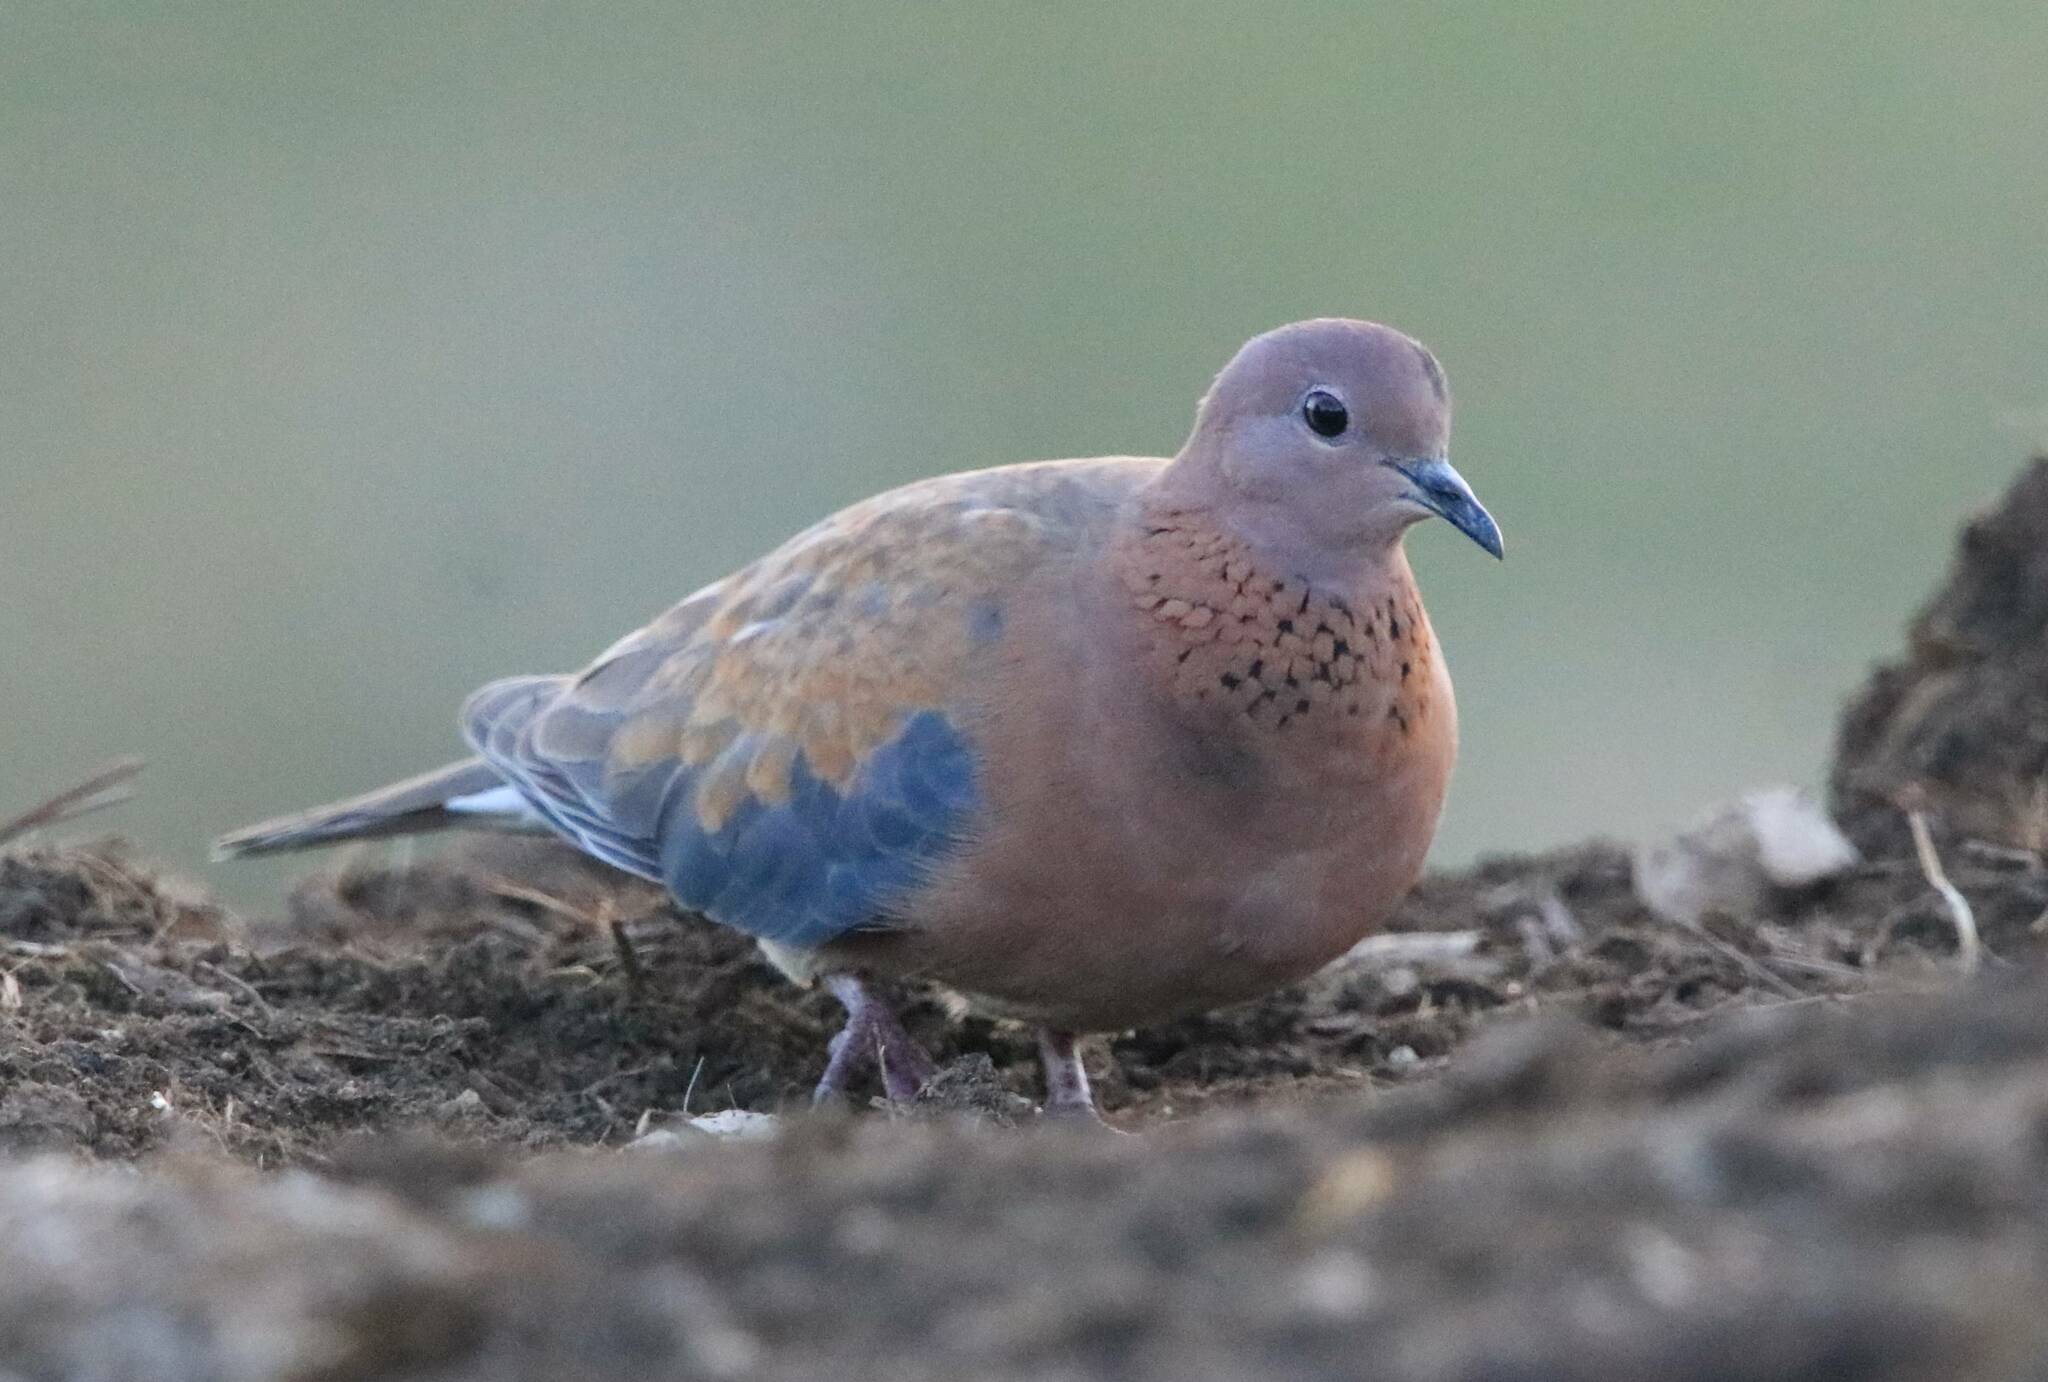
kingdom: Animalia
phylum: Chordata
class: Aves
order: Columbiformes
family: Columbidae
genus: Spilopelia
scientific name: Spilopelia senegalensis
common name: Laughing dove
